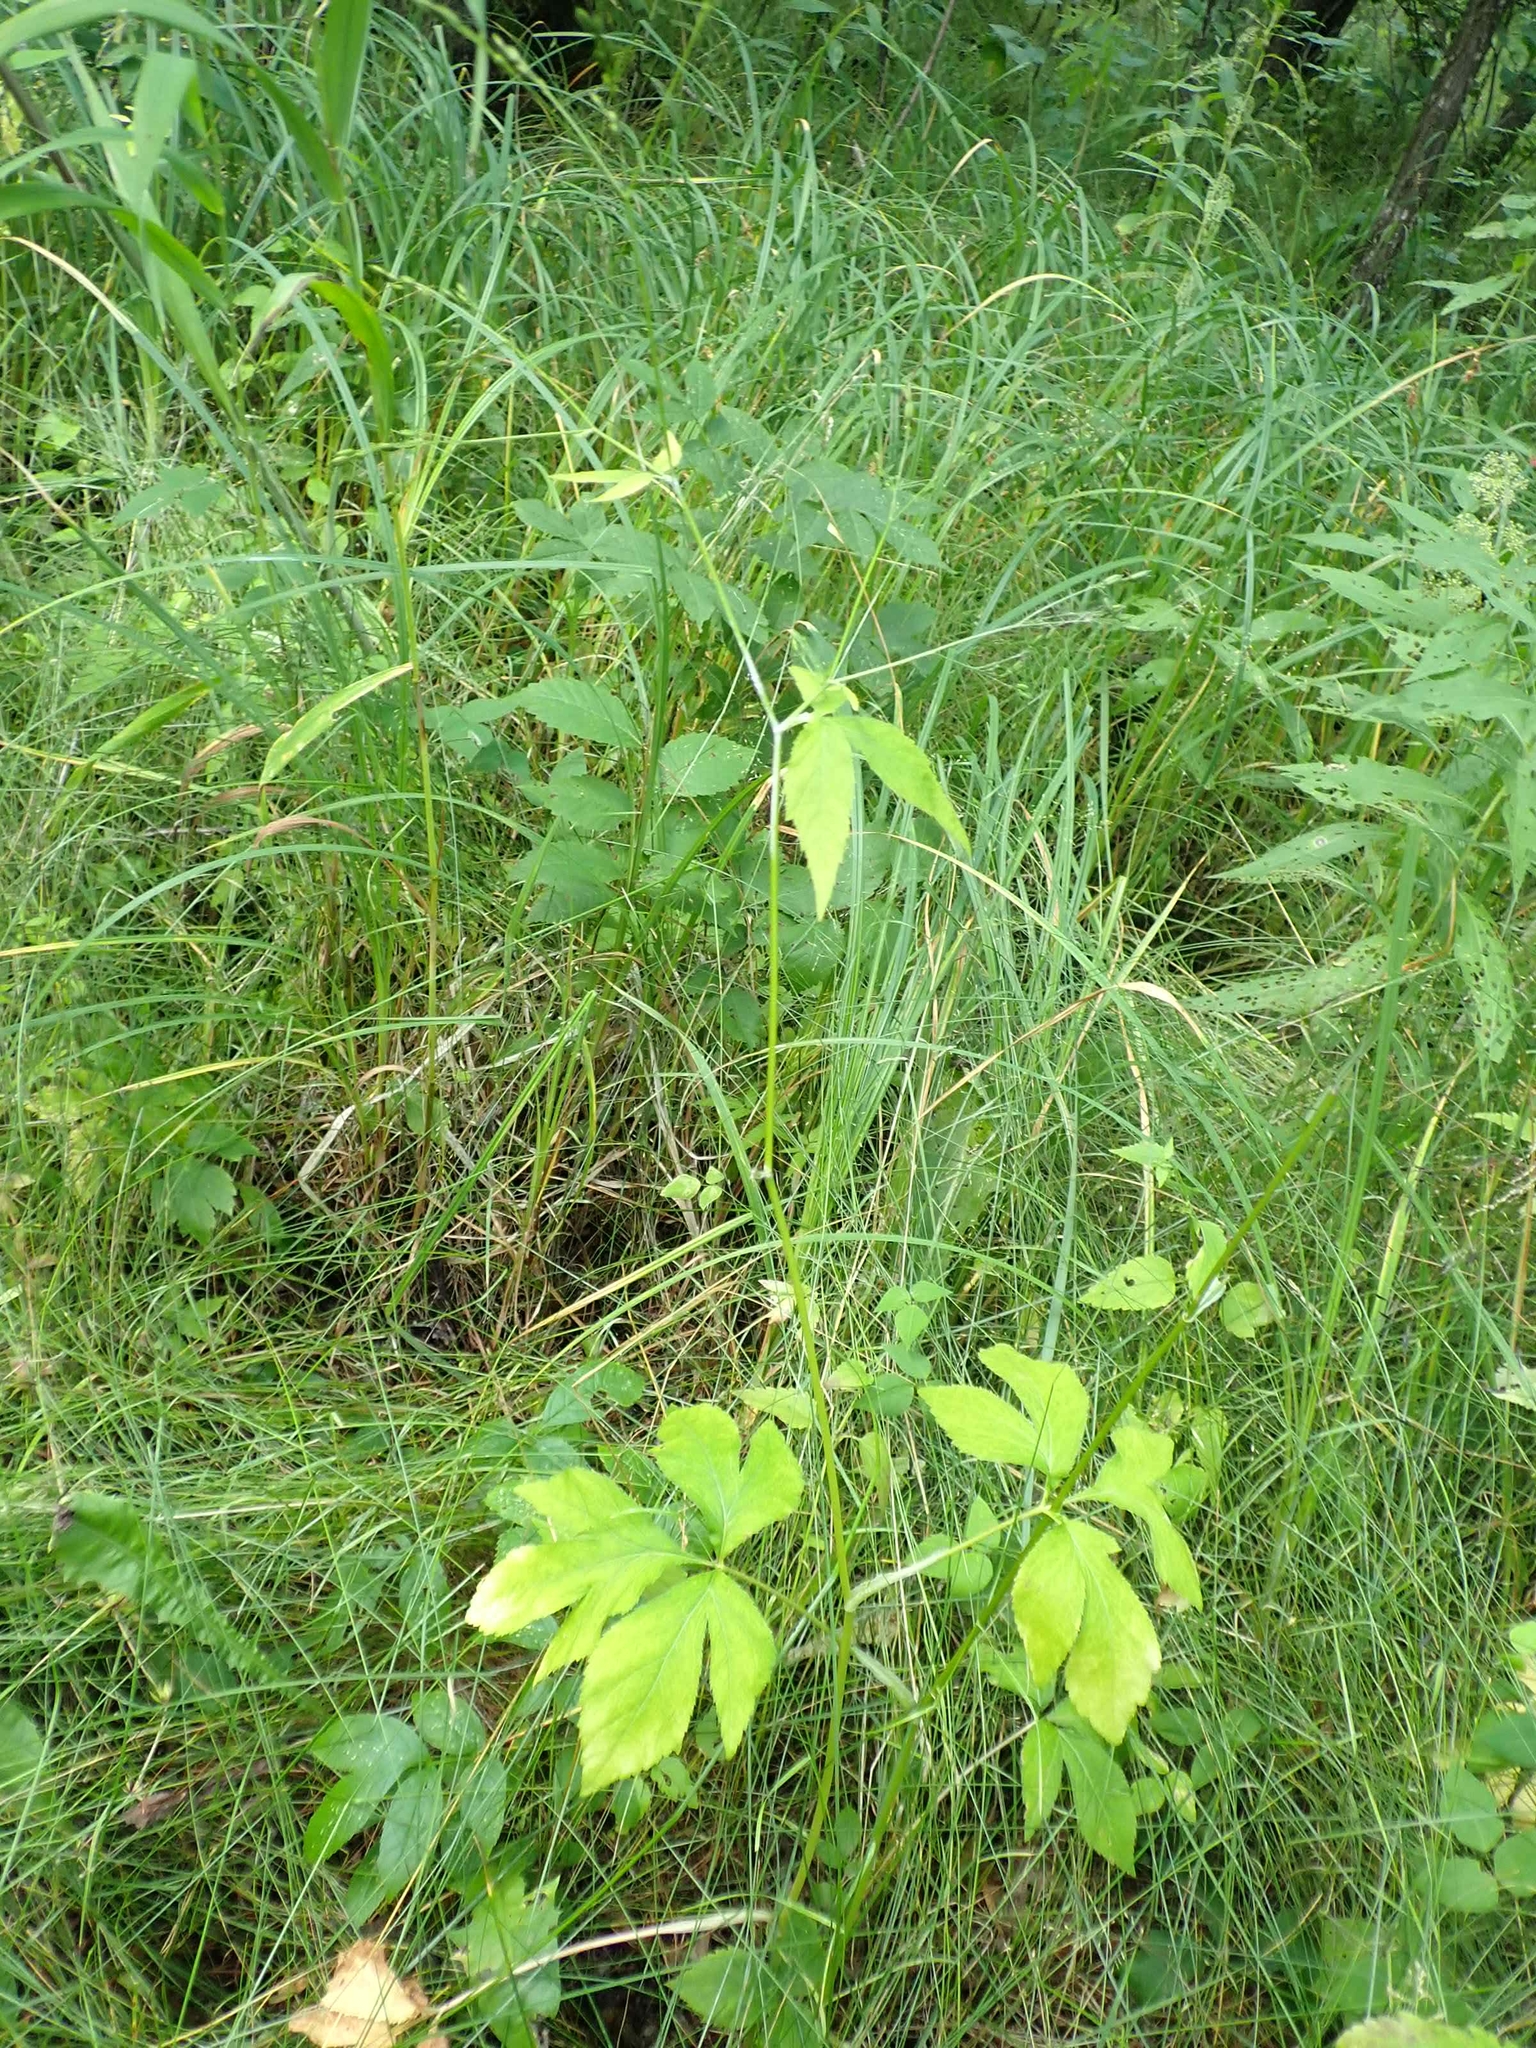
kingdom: Plantae
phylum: Tracheophyta
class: Magnoliopsida
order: Apiales
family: Apiaceae
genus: Cryptotaenia
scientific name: Cryptotaenia canadensis
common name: Honewort
